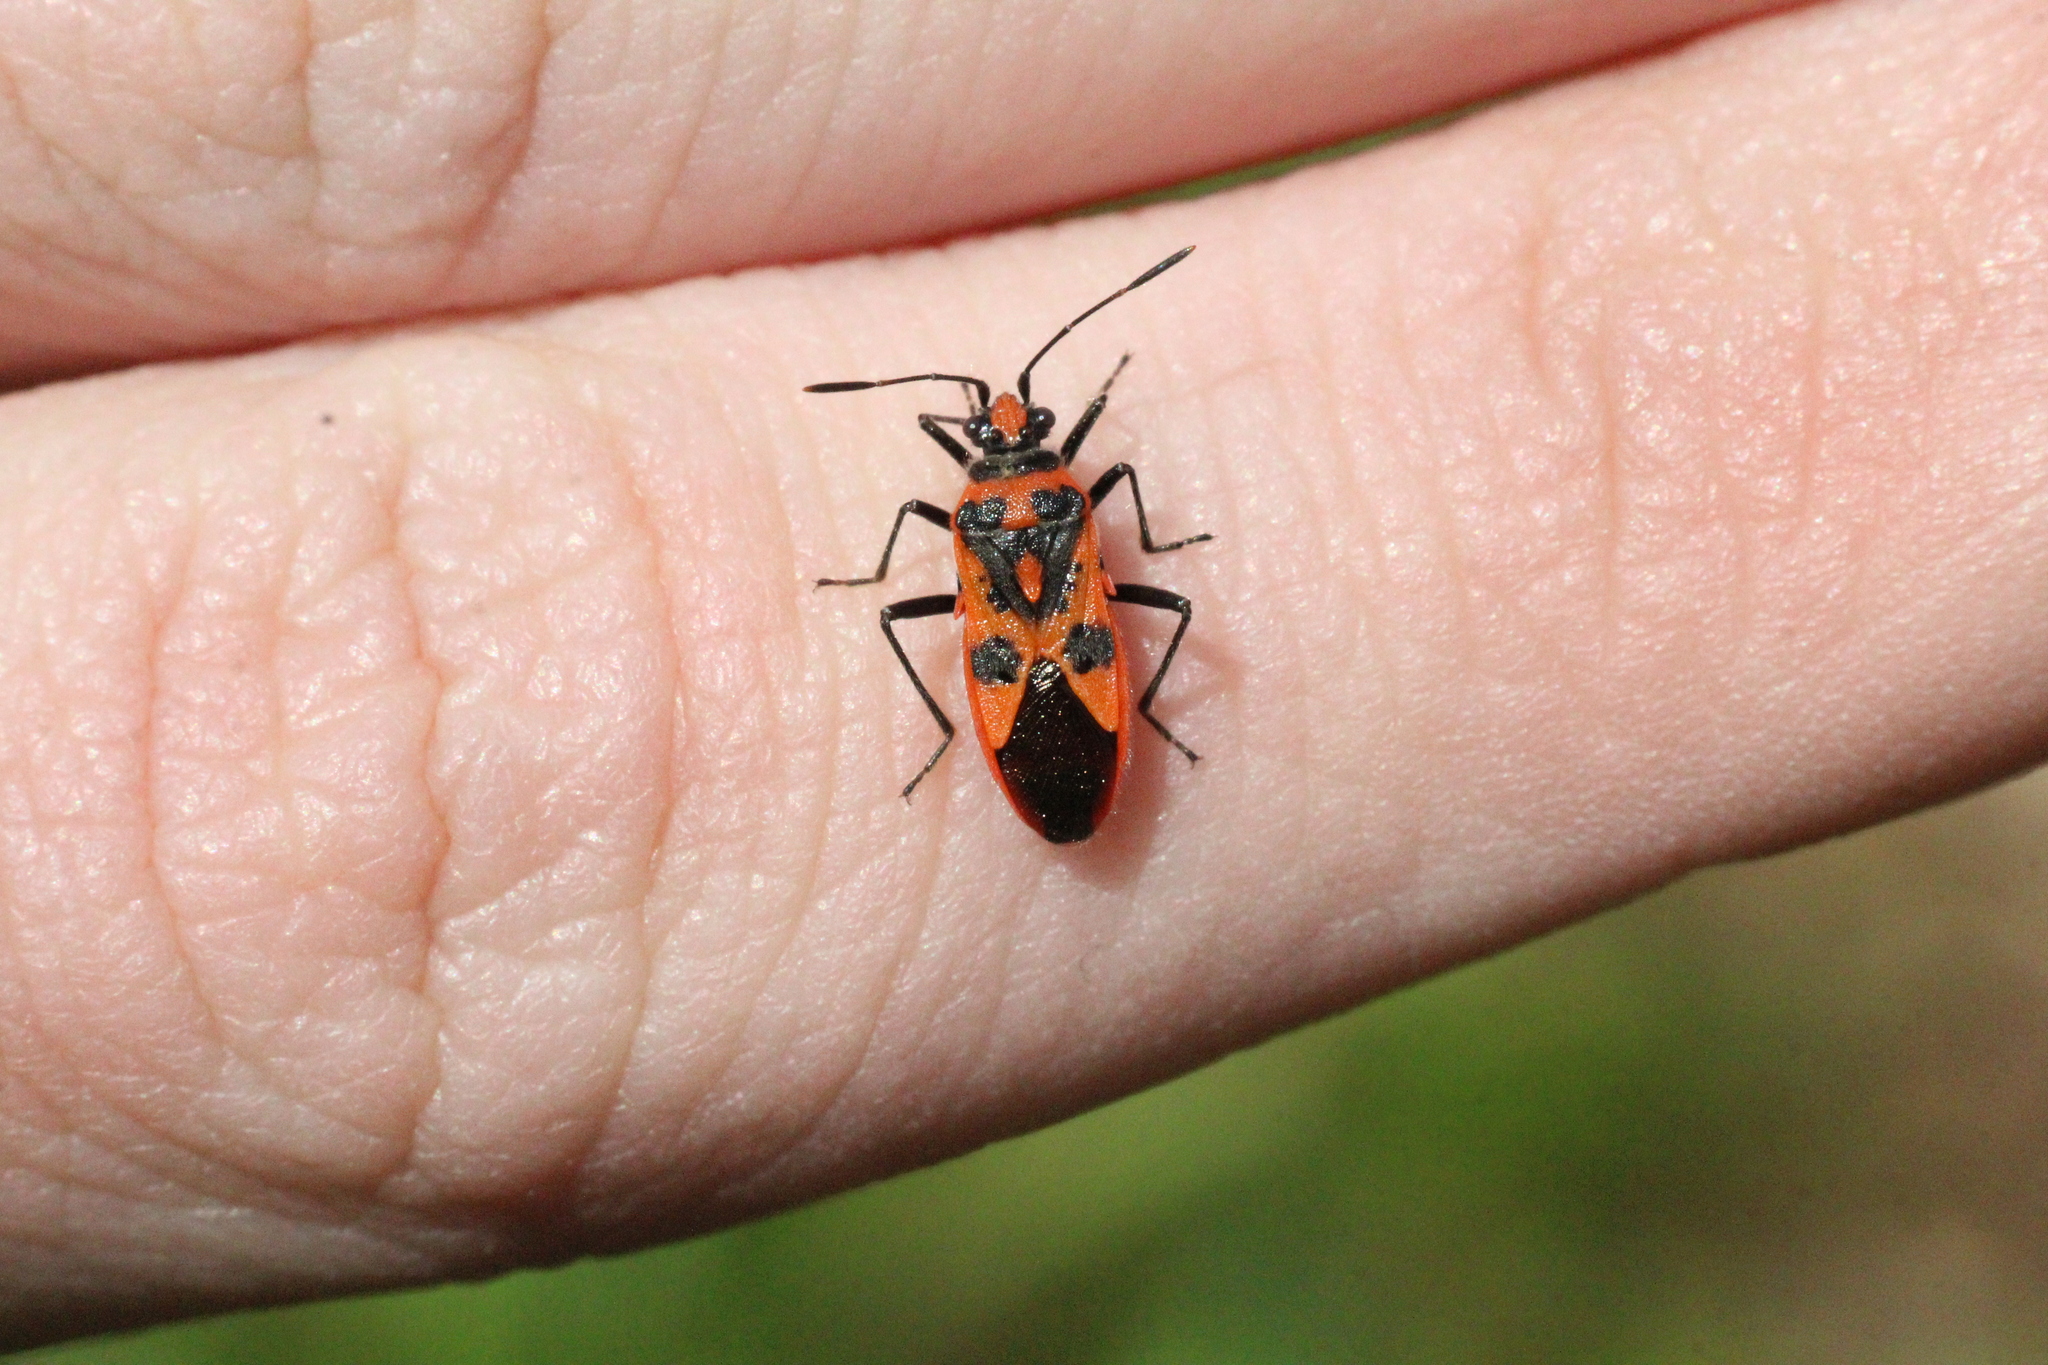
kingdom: Animalia
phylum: Arthropoda
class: Insecta
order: Hemiptera
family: Rhopalidae
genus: Corizus
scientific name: Corizus hyoscyami
